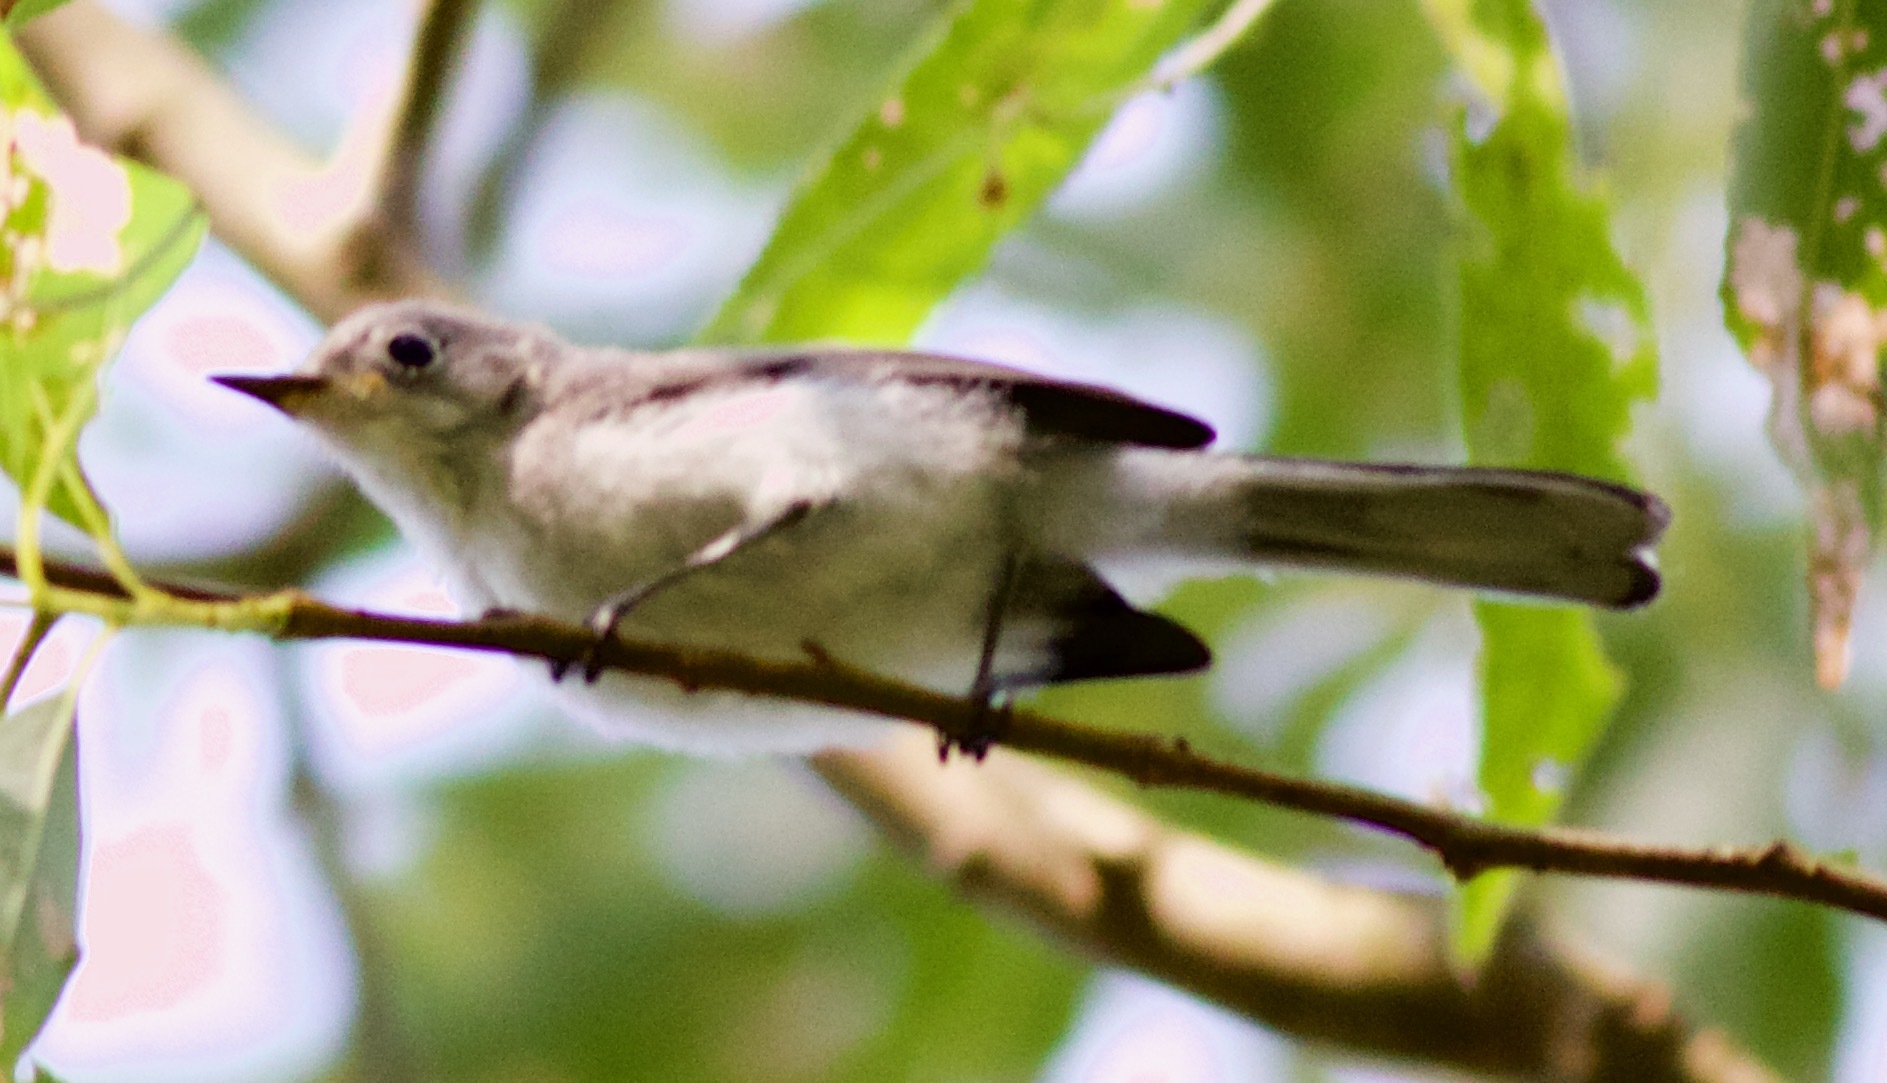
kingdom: Animalia
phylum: Chordata
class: Aves
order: Passeriformes
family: Polioptilidae
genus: Polioptila
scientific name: Polioptila caerulea
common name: Blue-gray gnatcatcher
